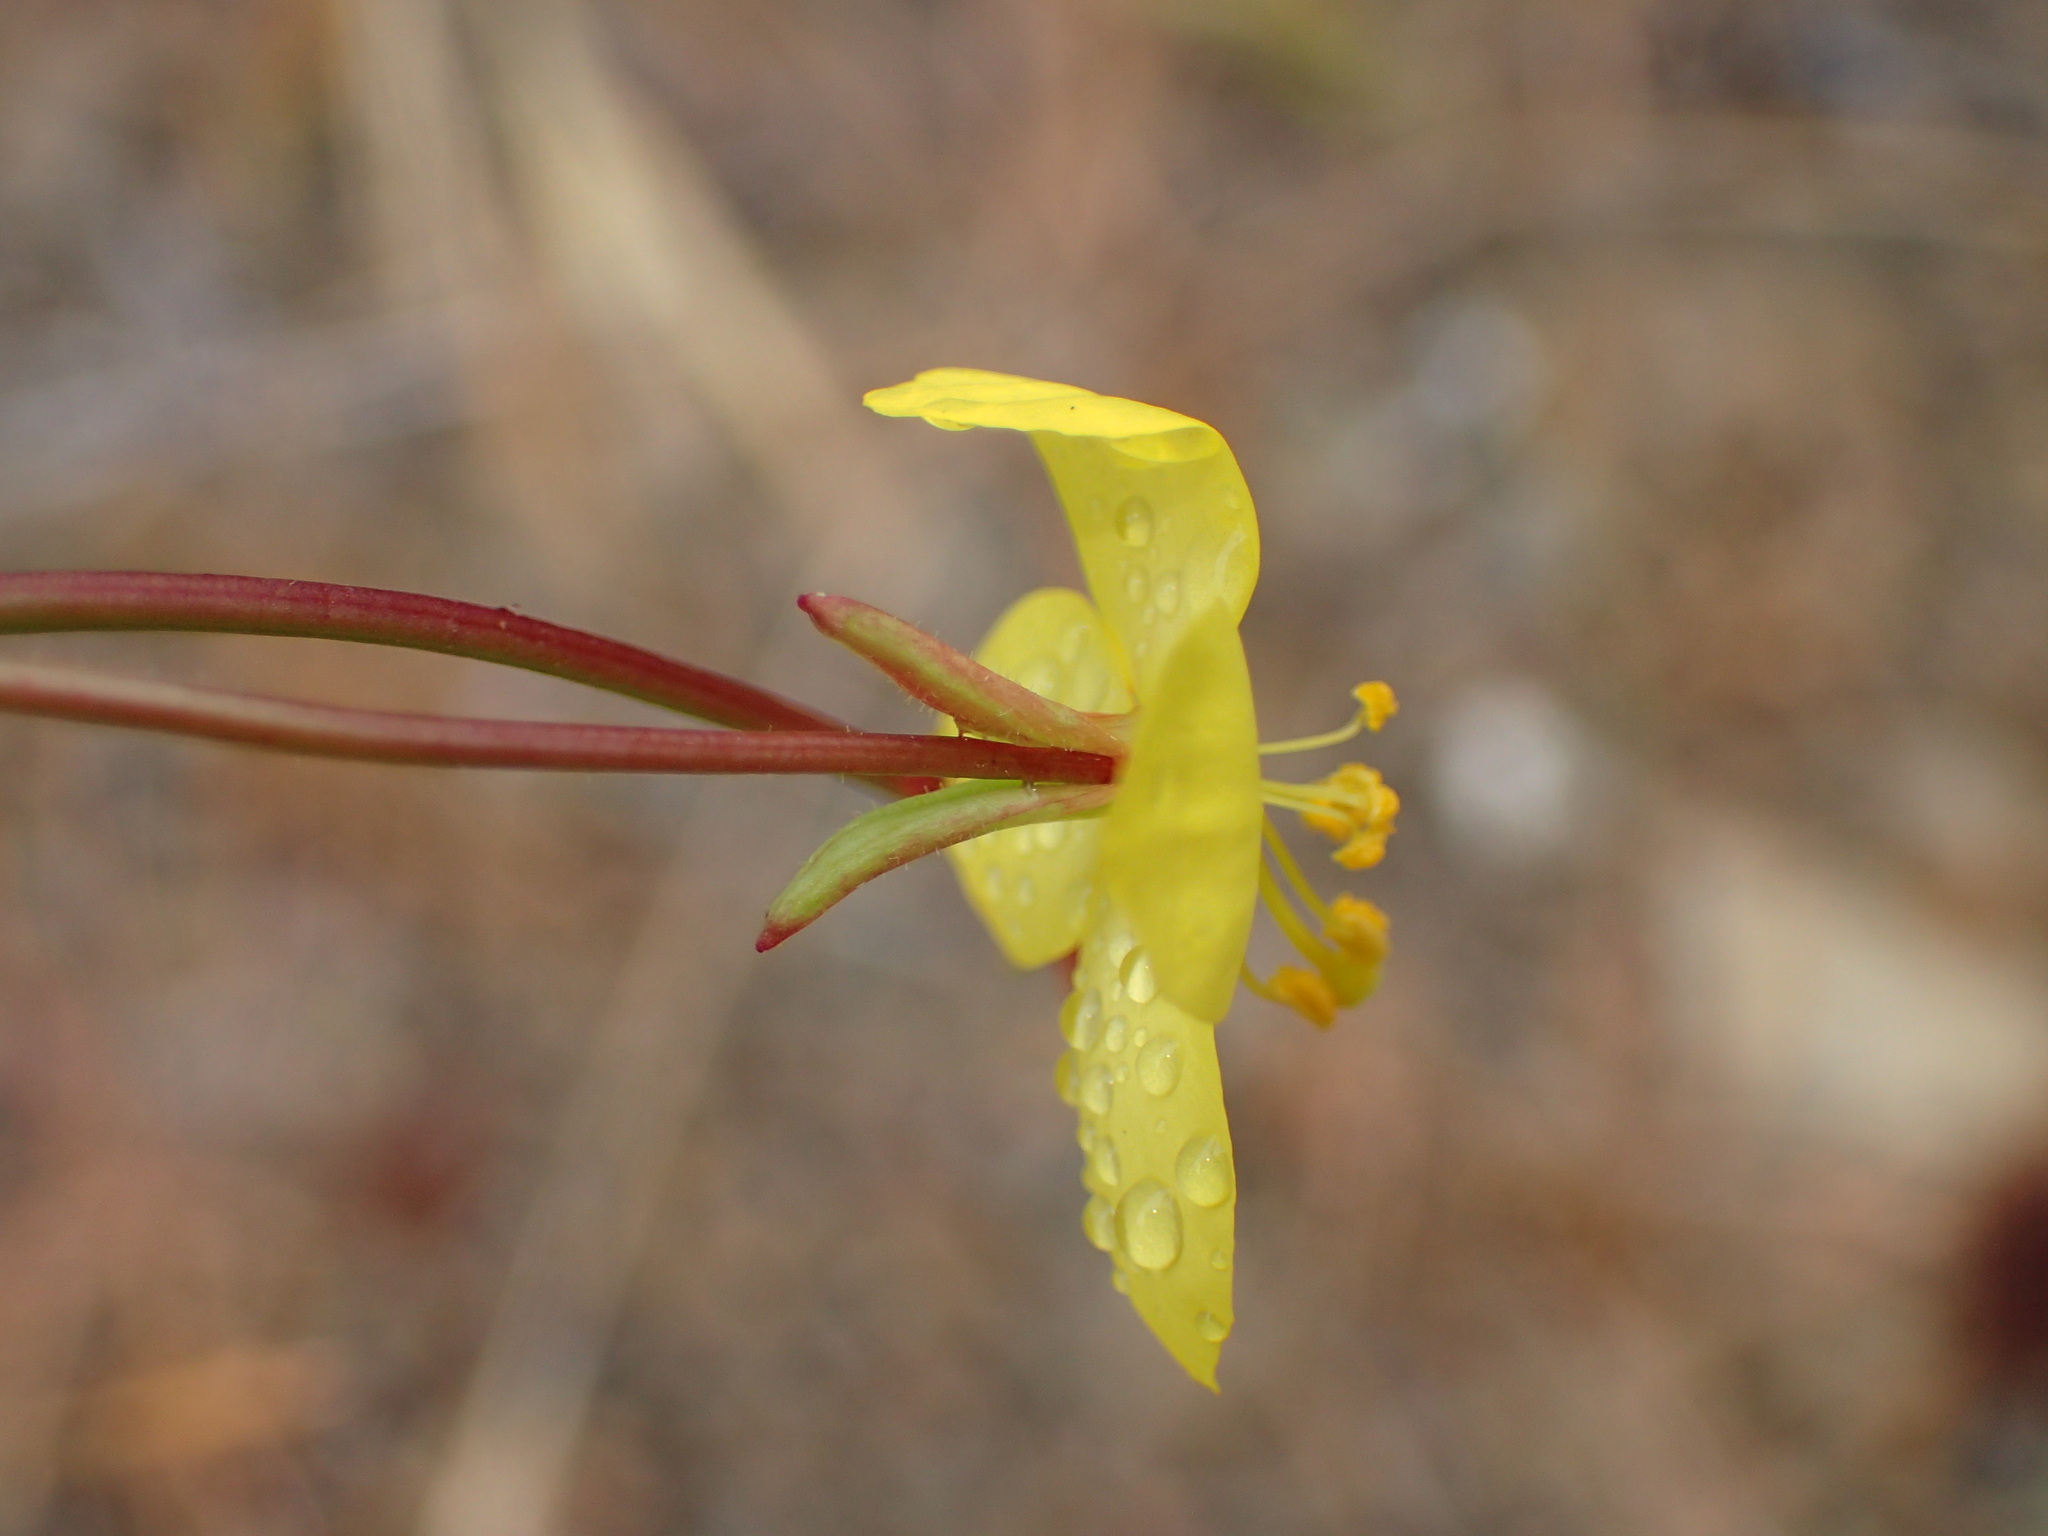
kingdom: Plantae
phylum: Tracheophyta
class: Magnoliopsida
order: Myrtales
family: Onagraceae
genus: Eulobus
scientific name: Eulobus californicus
